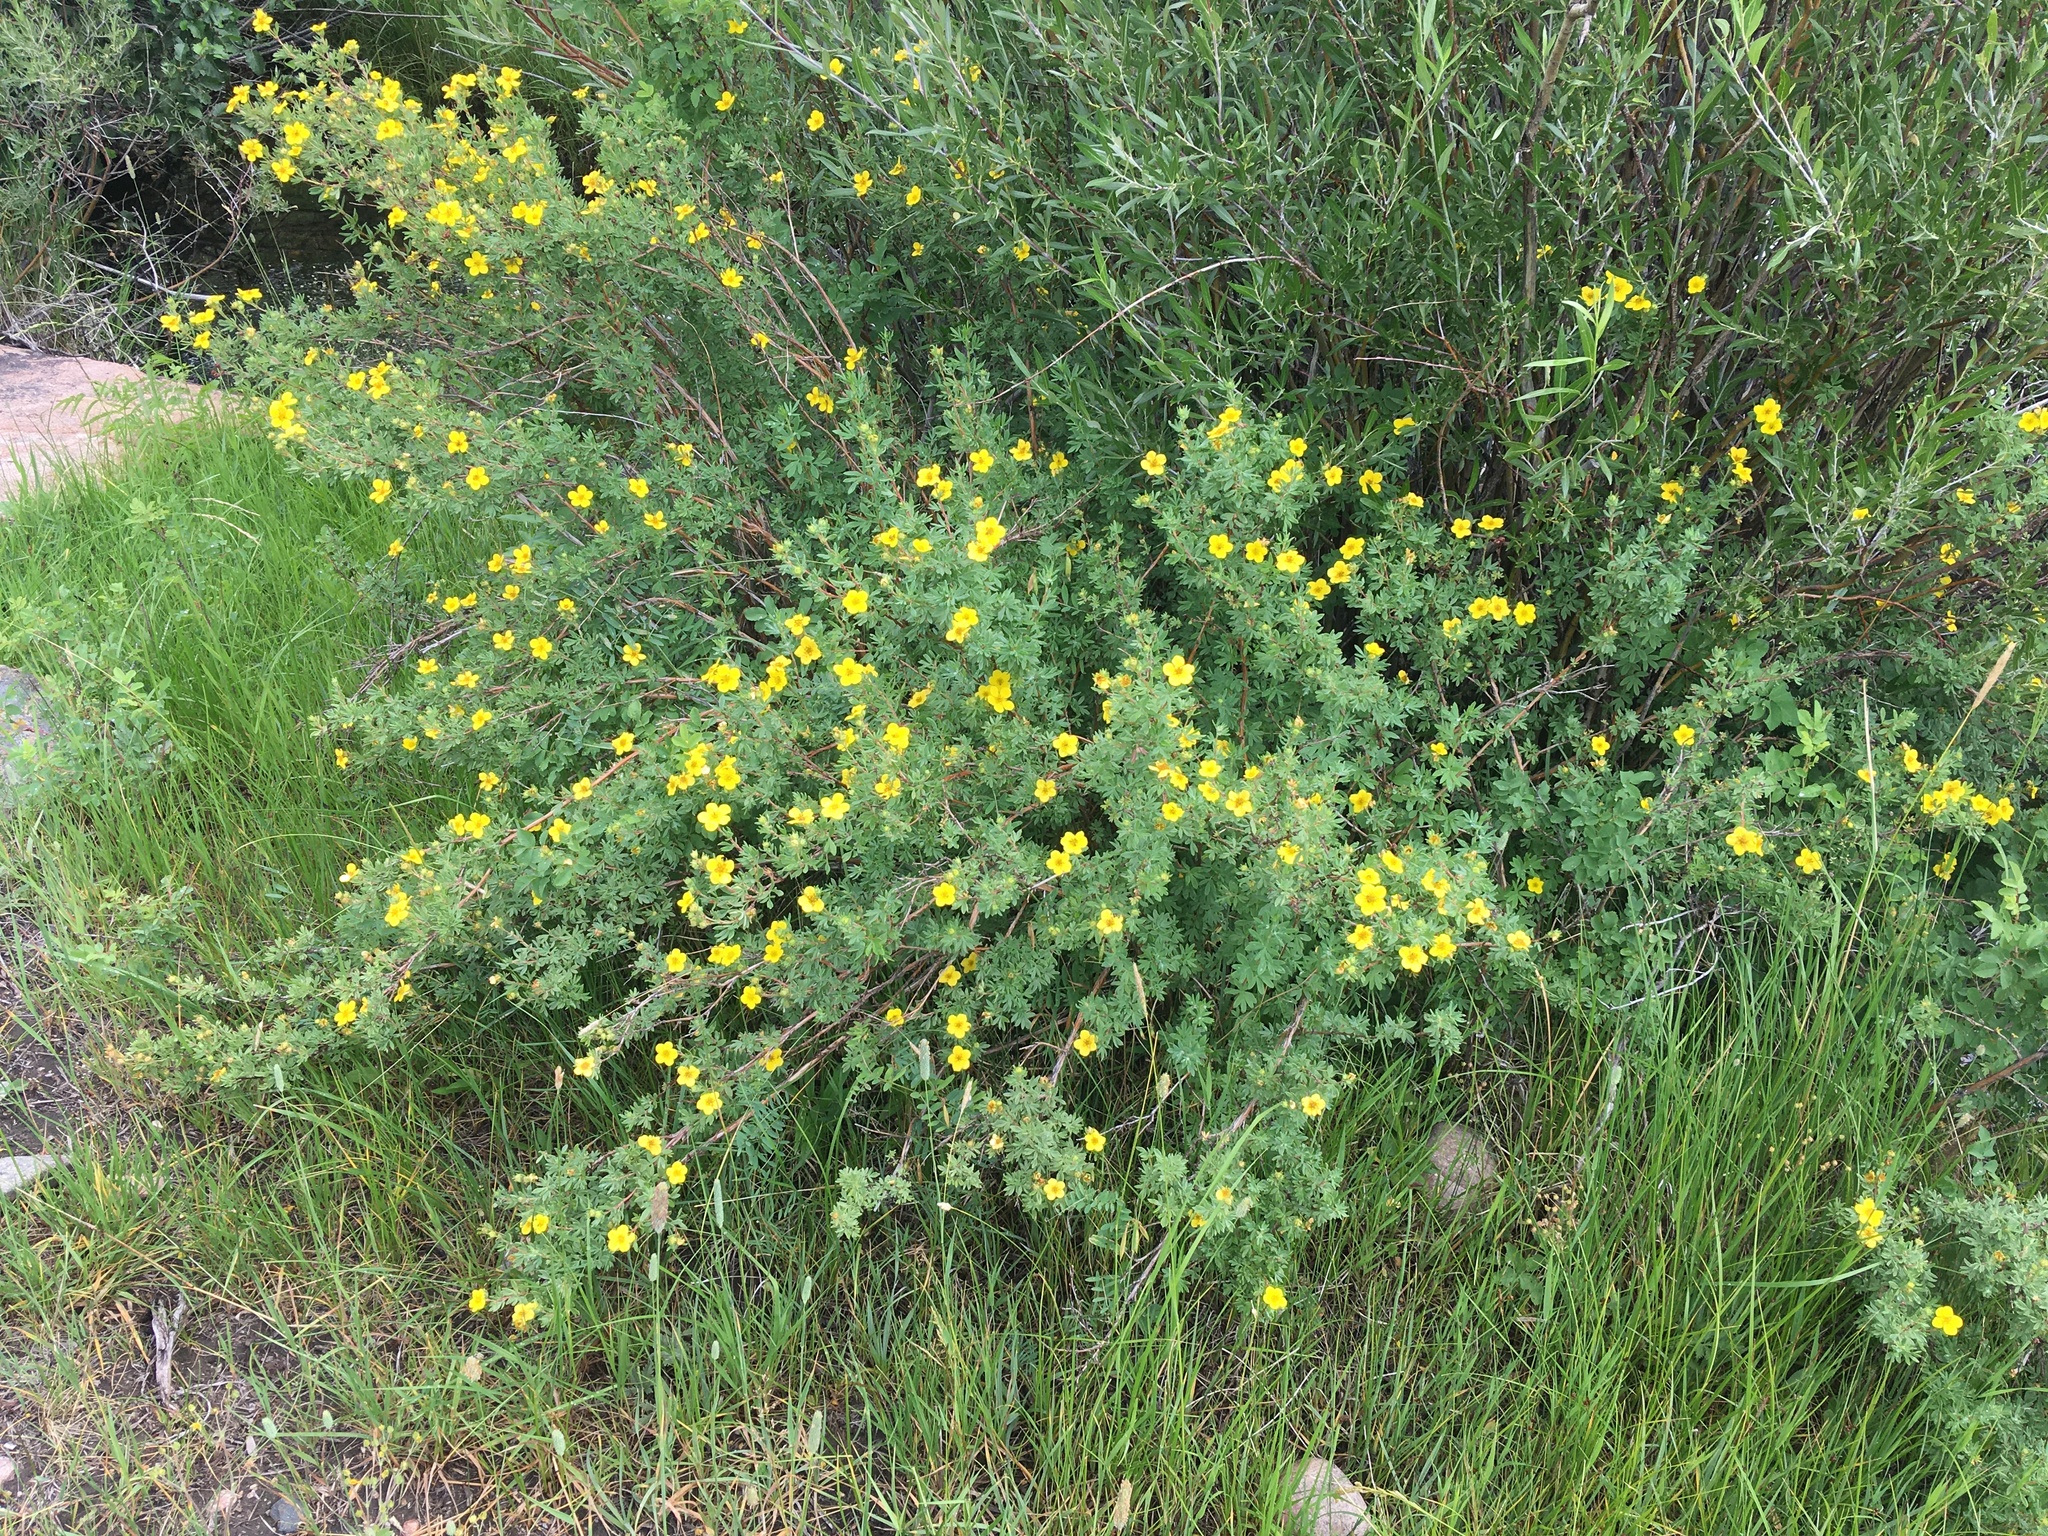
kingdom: Plantae
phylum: Tracheophyta
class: Magnoliopsida
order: Rosales
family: Rosaceae
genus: Dasiphora
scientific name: Dasiphora fruticosa
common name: Shrubby cinquefoil
